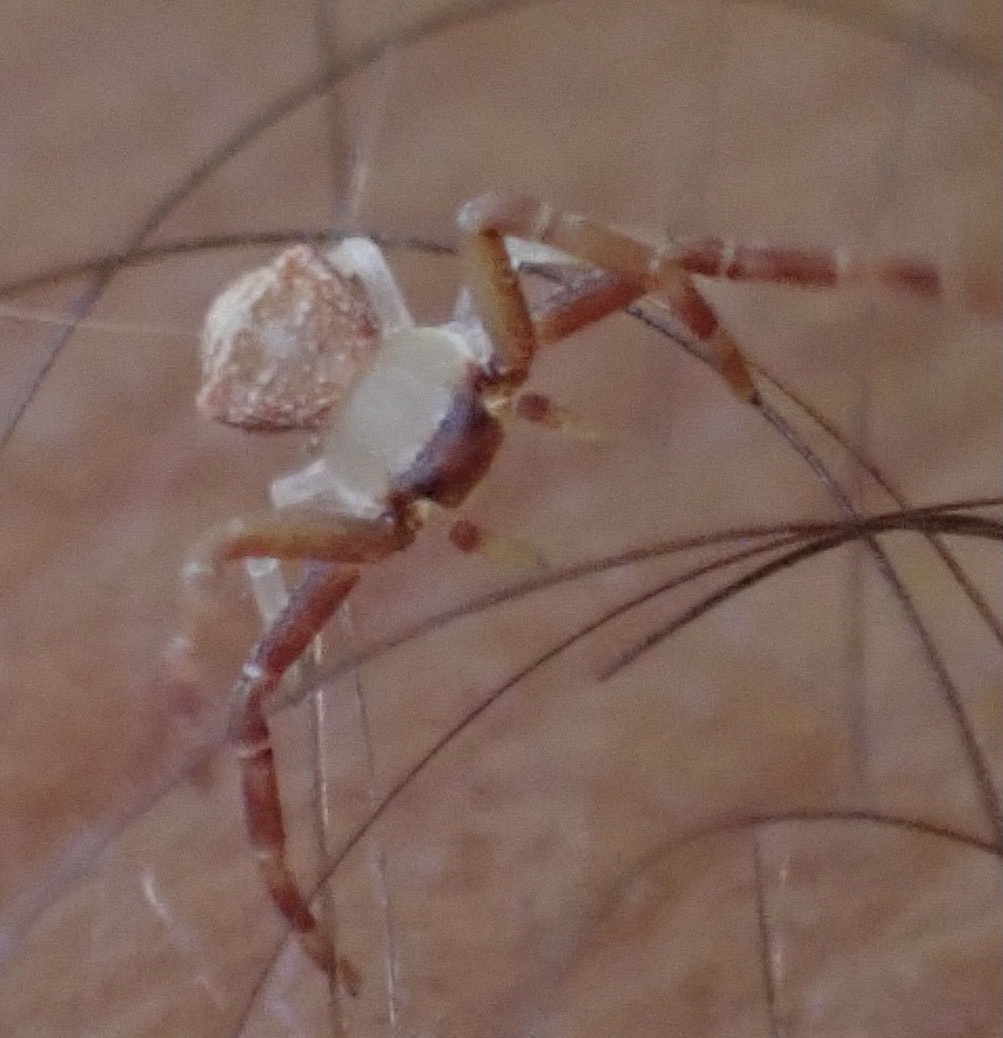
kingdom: Animalia
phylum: Arthropoda
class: Arachnida
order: Araneae
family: Thomisidae
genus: Pistius
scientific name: Pistius truncatus
